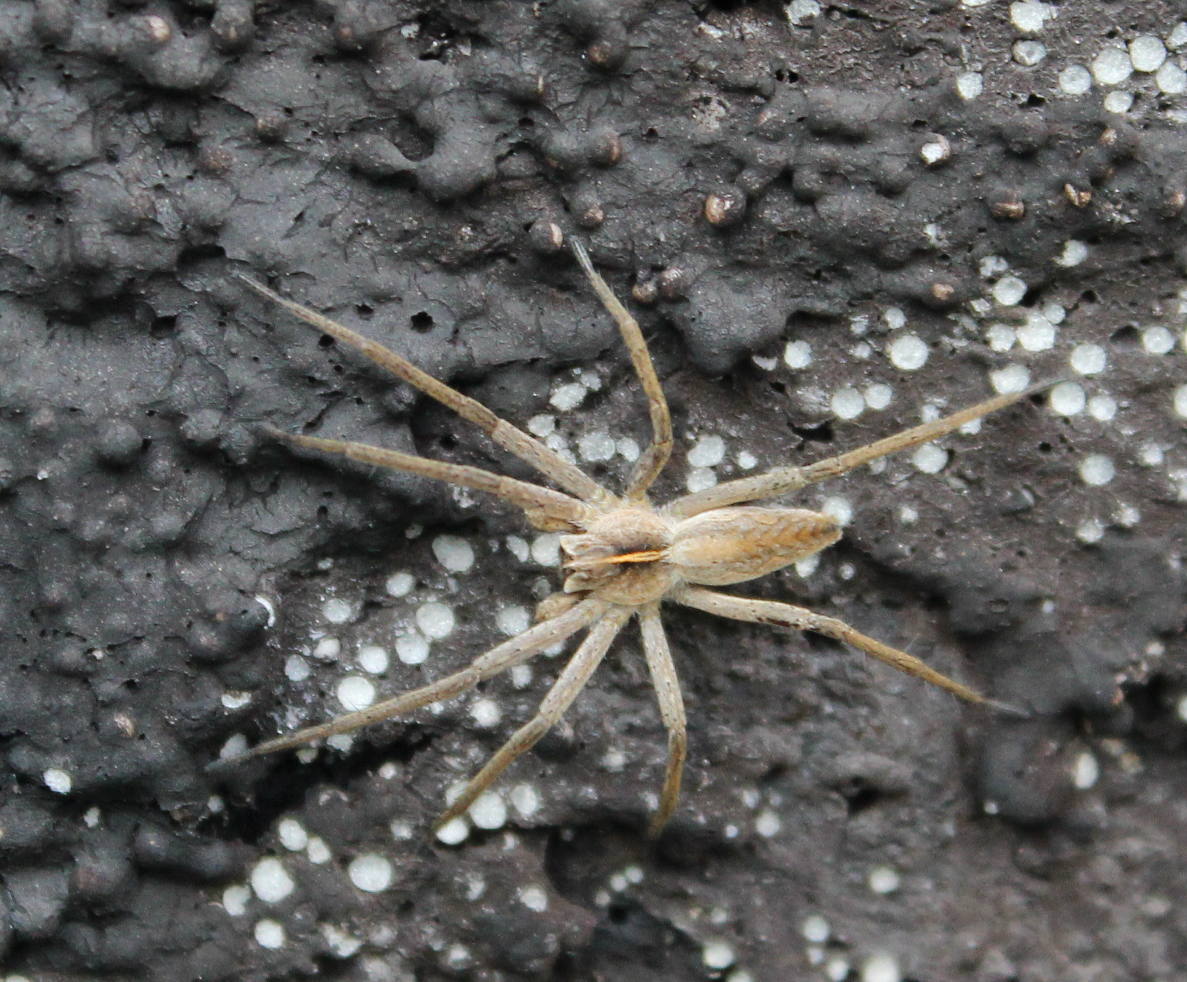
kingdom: Animalia
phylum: Arthropoda
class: Arachnida
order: Araneae
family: Pisauridae
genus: Pisaura
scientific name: Pisaura mirabilis
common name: Tent spider
